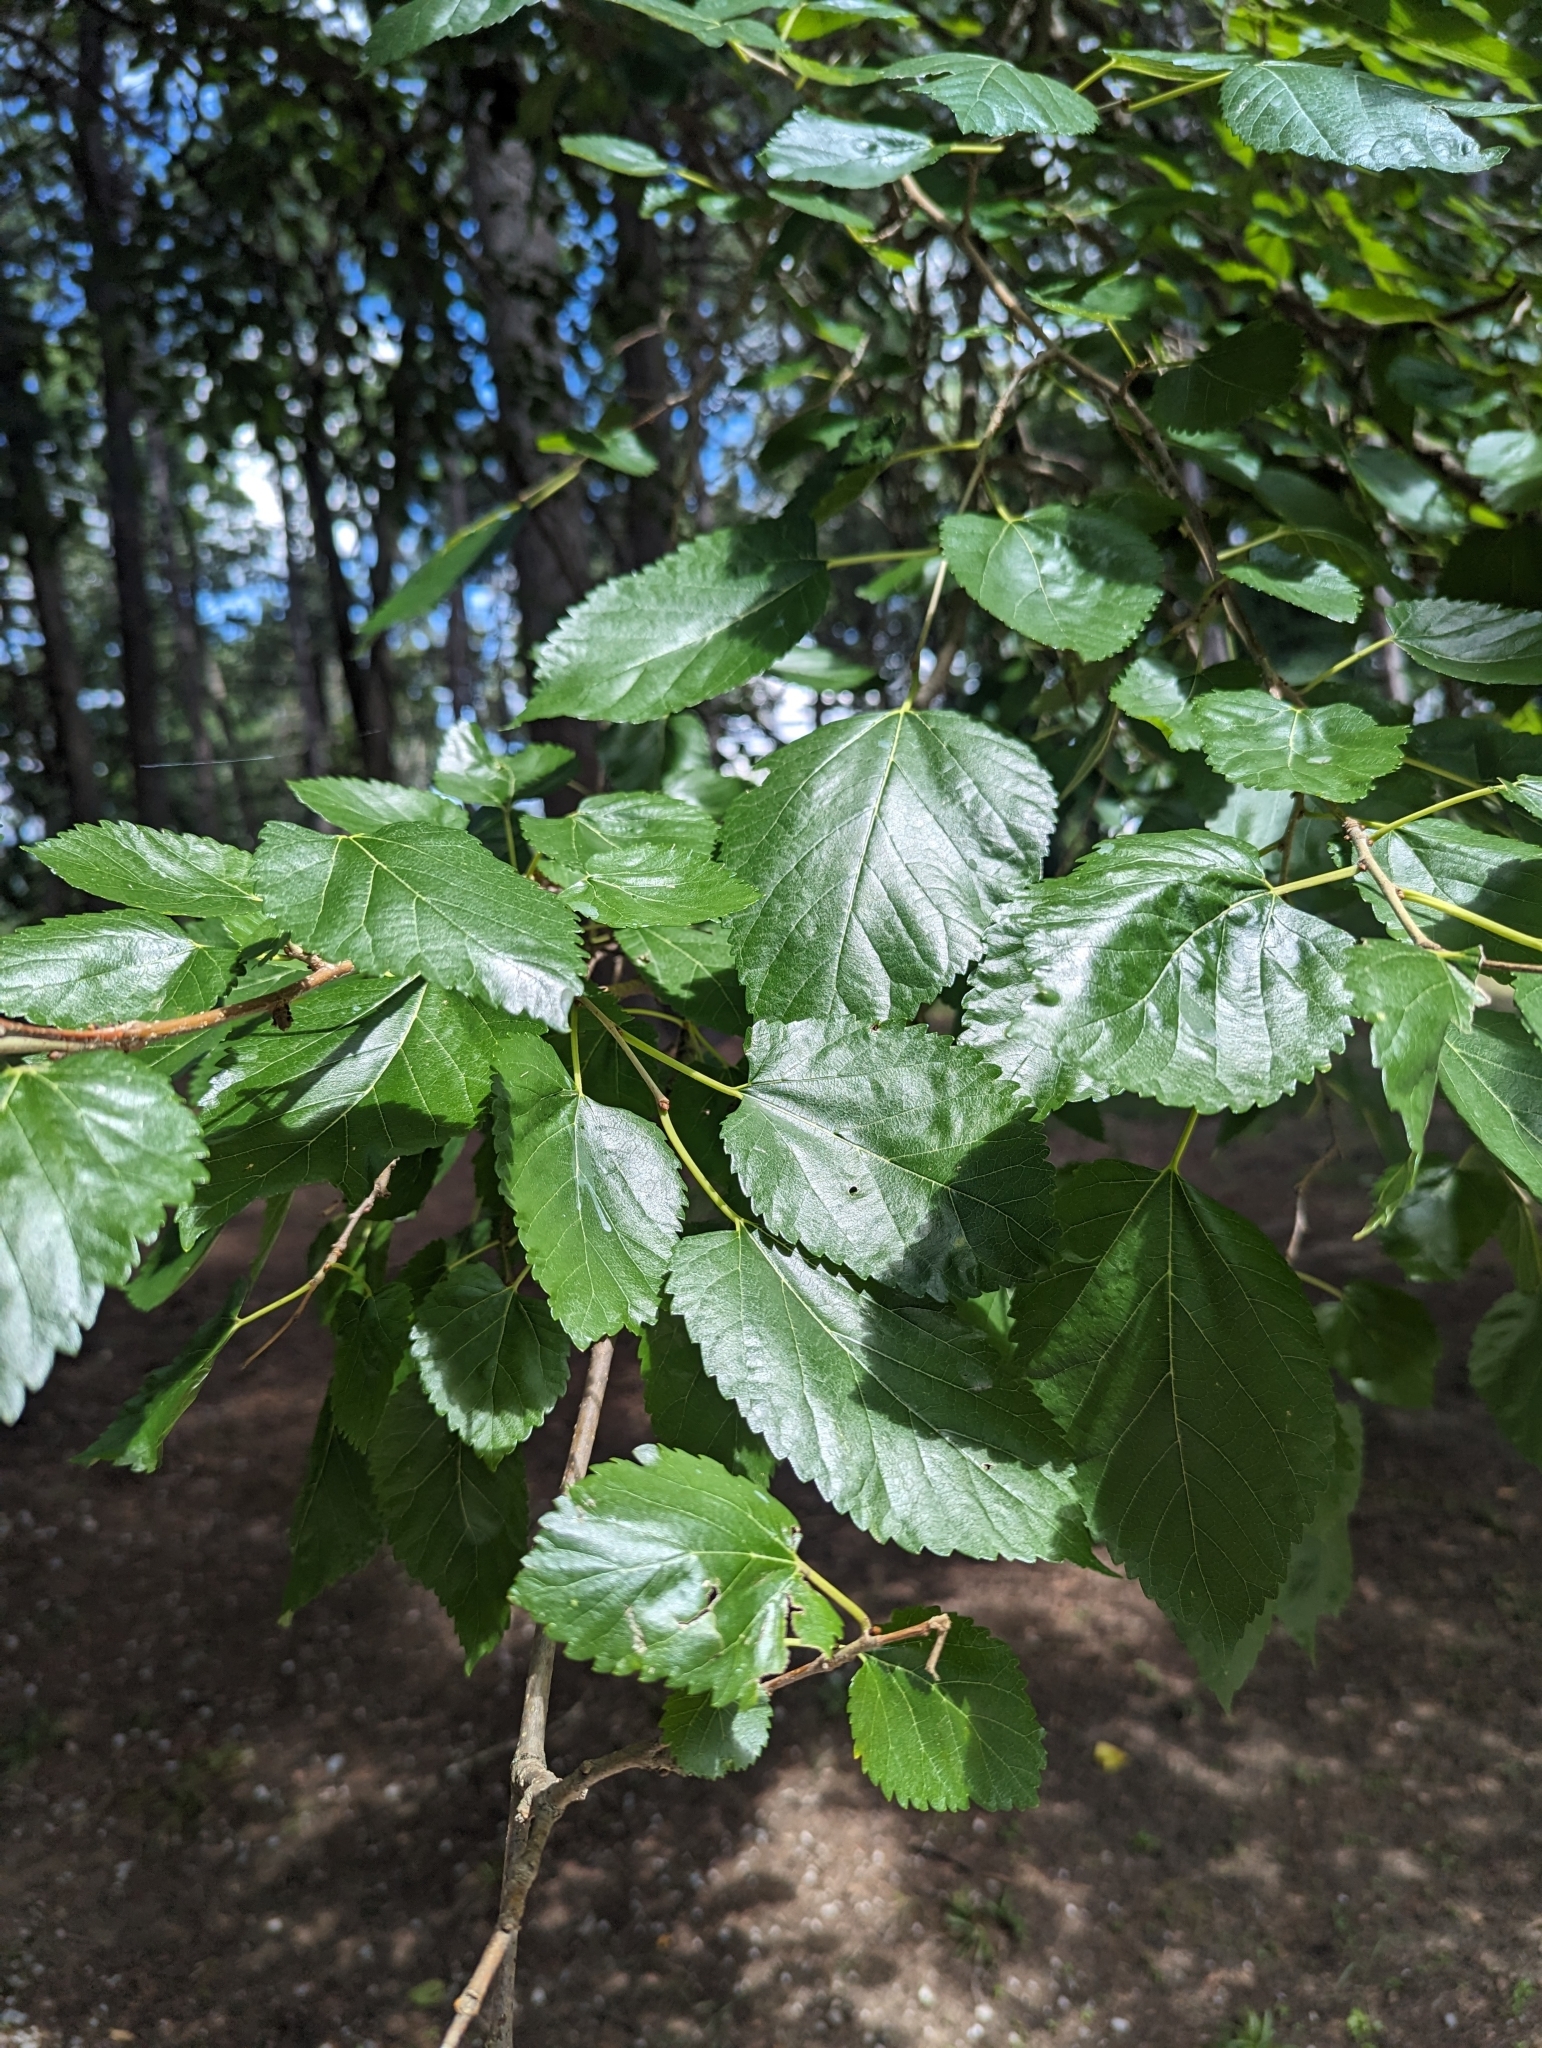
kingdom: Plantae
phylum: Tracheophyta
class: Magnoliopsida
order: Rosales
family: Moraceae
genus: Morus
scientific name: Morus alba
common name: White mulberry
